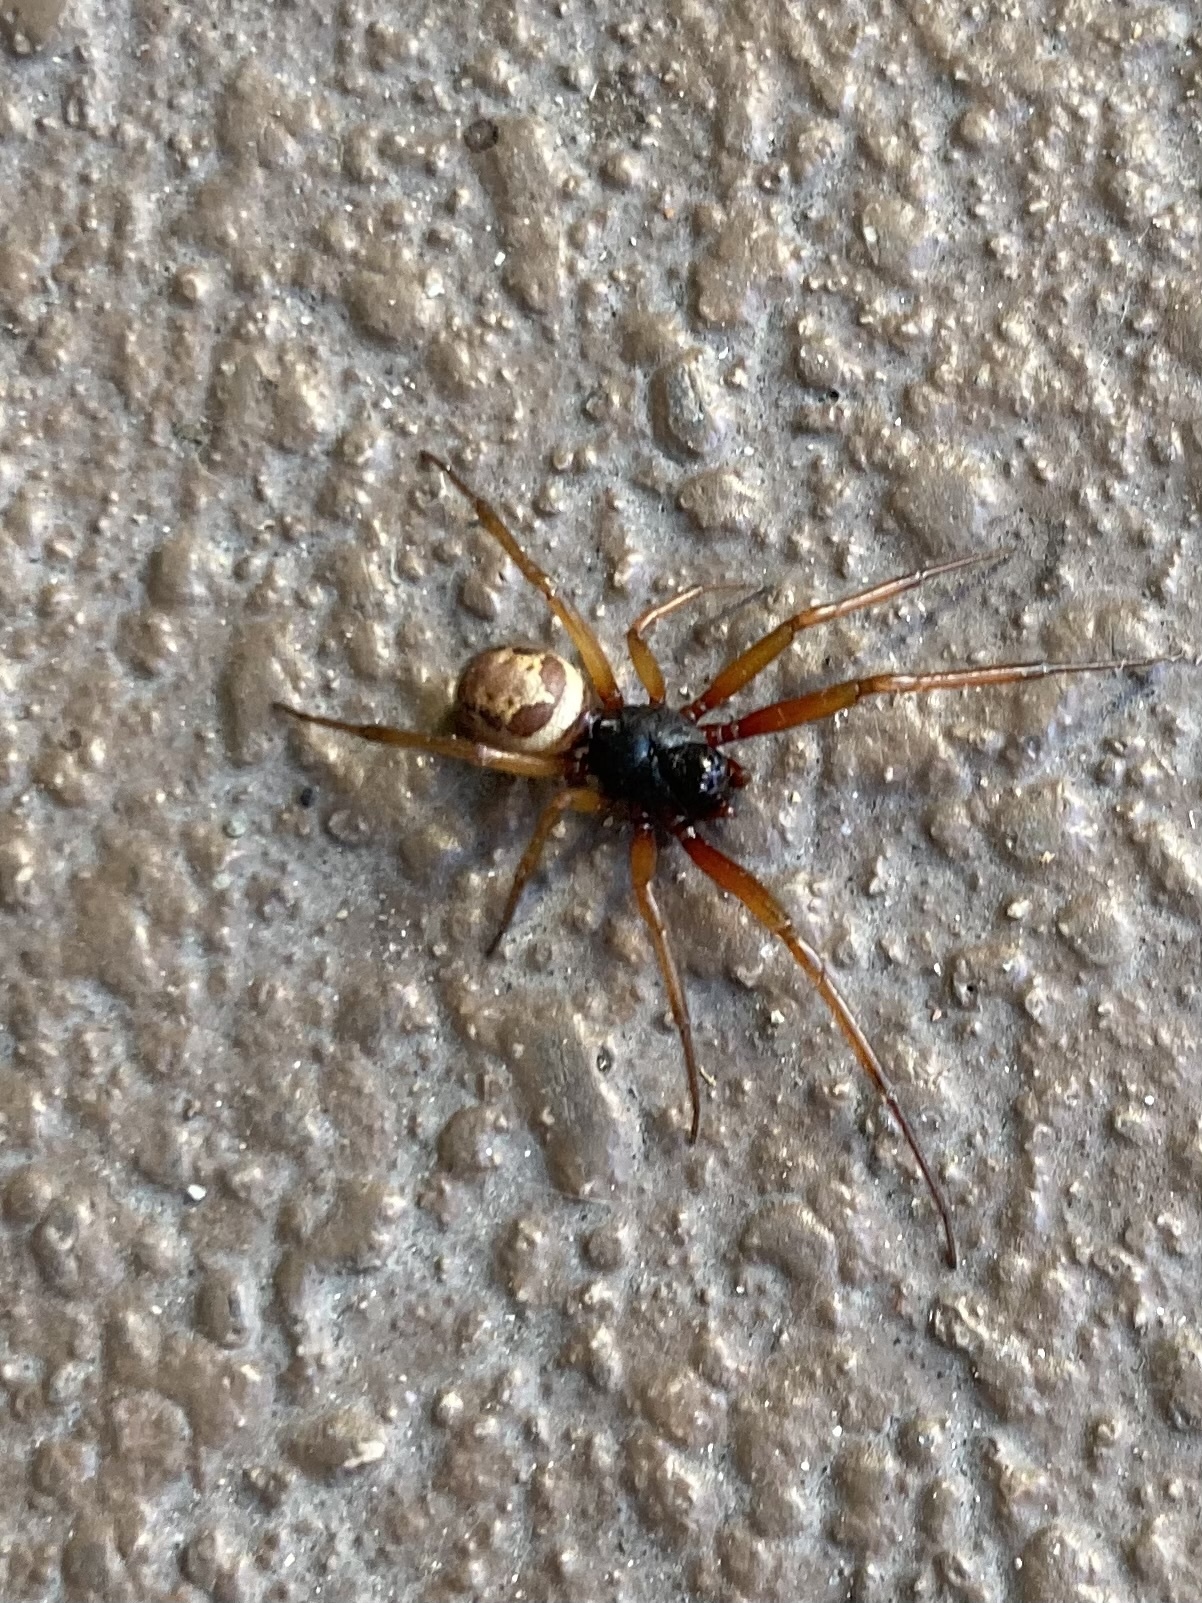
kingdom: Animalia
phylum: Arthropoda
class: Arachnida
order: Araneae
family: Theridiidae
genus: Steatoda
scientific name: Steatoda nobilis
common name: Cobweb weaver
